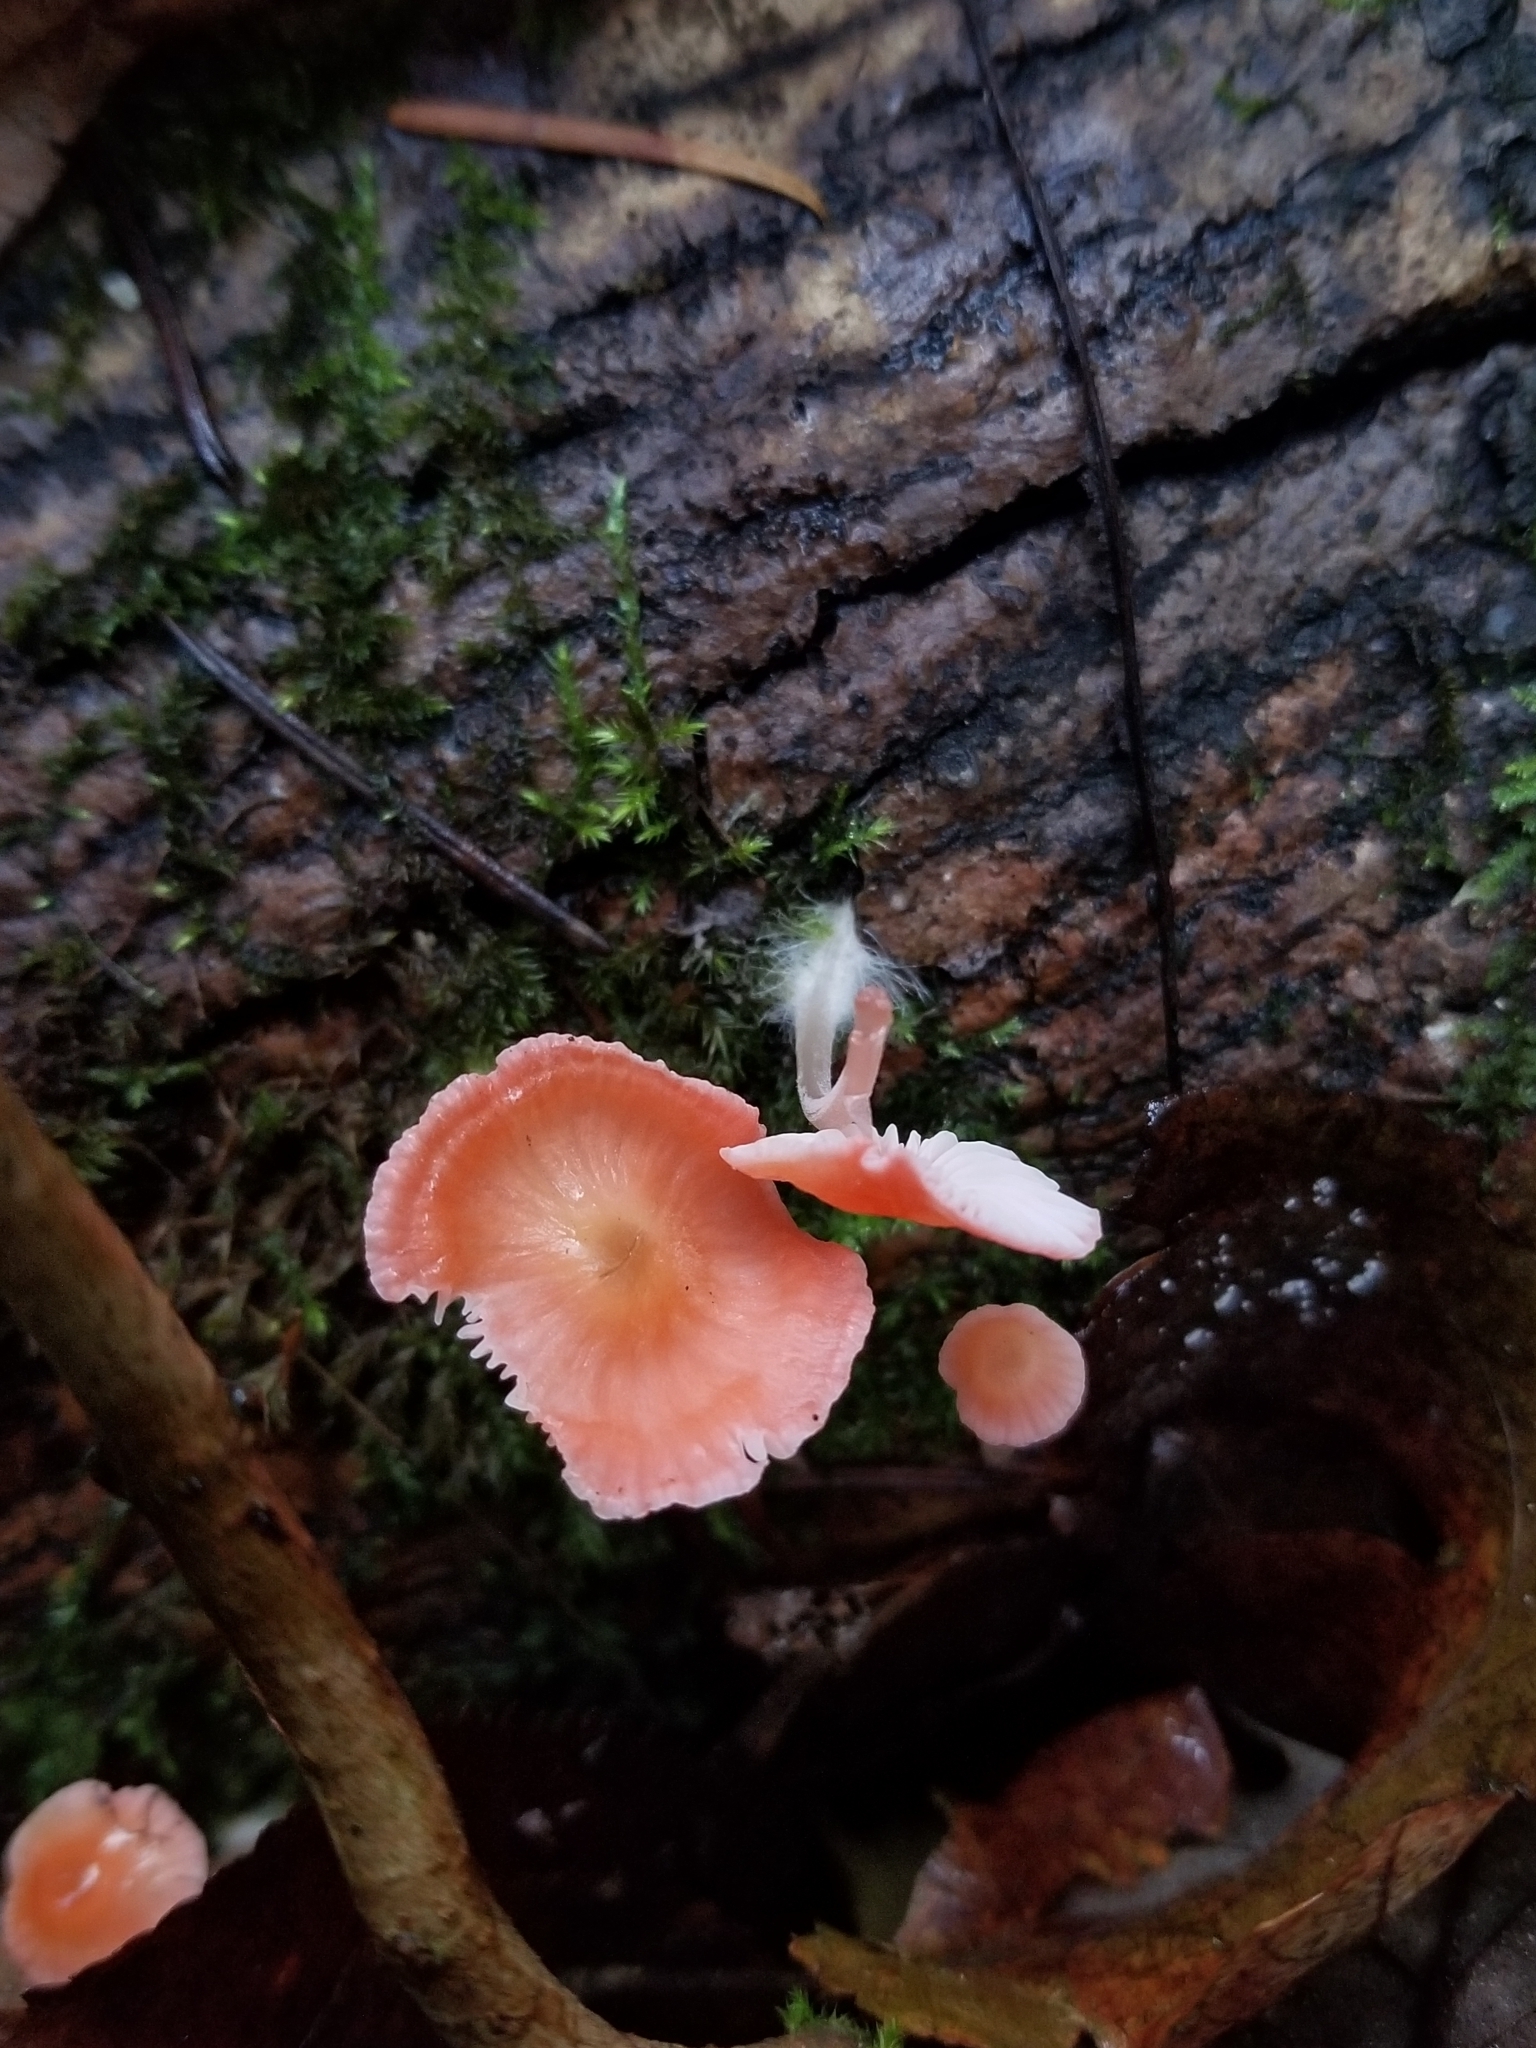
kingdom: Fungi
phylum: Basidiomycota
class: Agaricomycetes
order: Agaricales
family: Mycenaceae
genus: Atheniella
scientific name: Atheniella adonis
